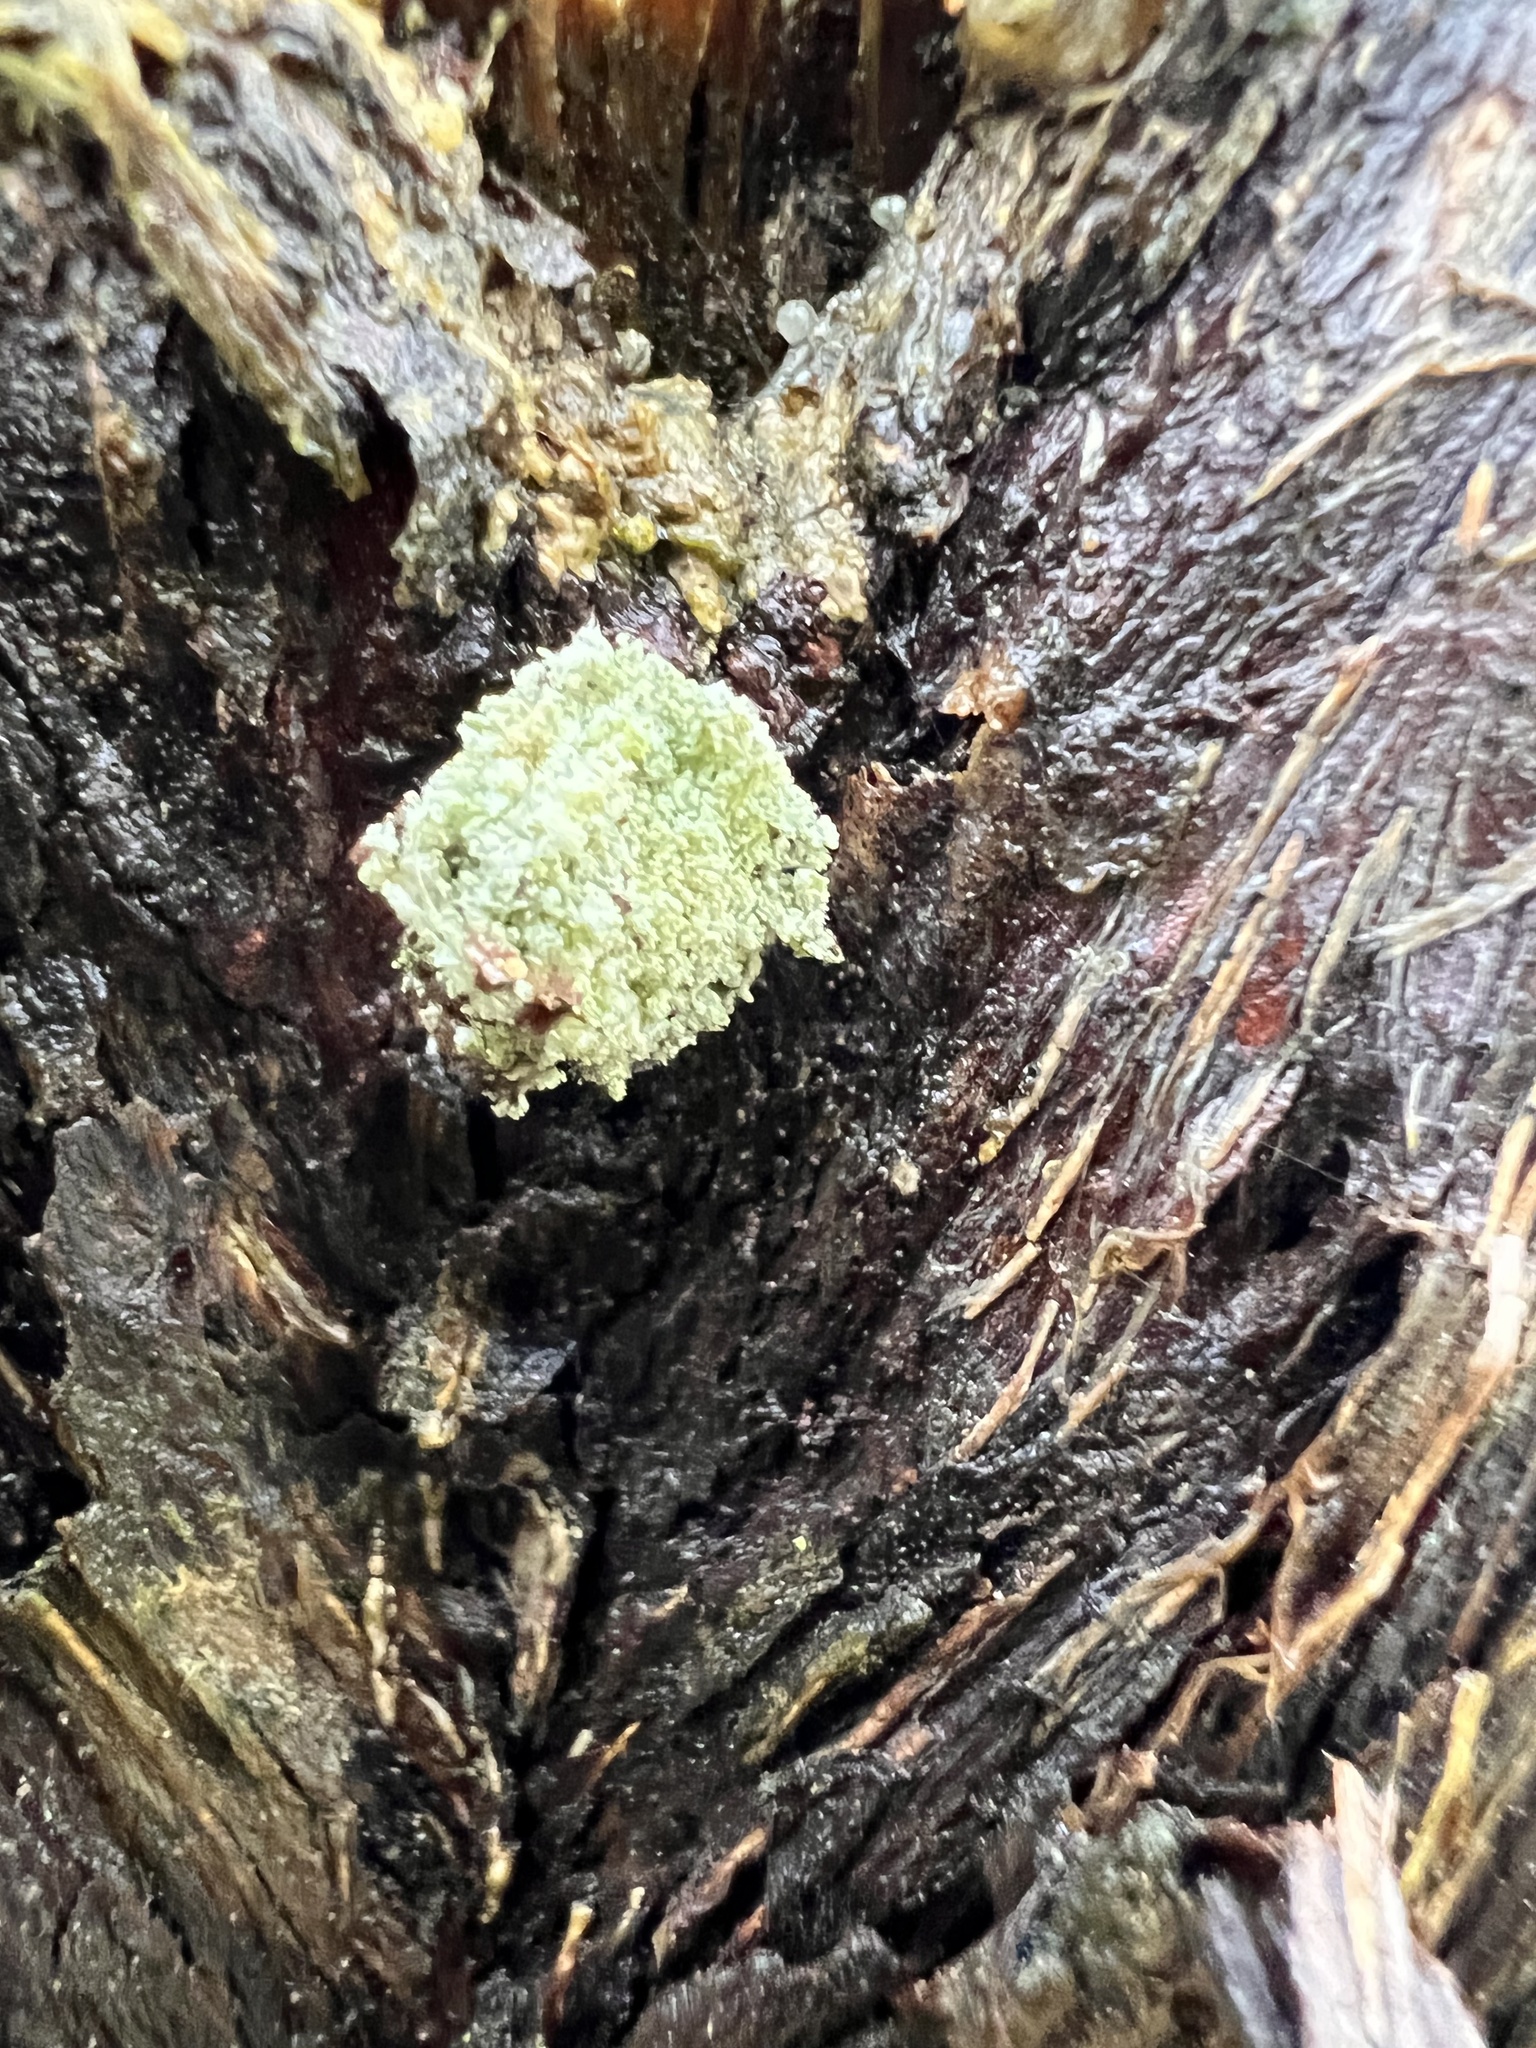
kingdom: Animalia
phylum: Arthropoda
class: Insecta
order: Neuroptera
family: Chrysopidae
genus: Leucochrysa
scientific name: Leucochrysa pavida
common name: Lichen-carrying green lacewing
